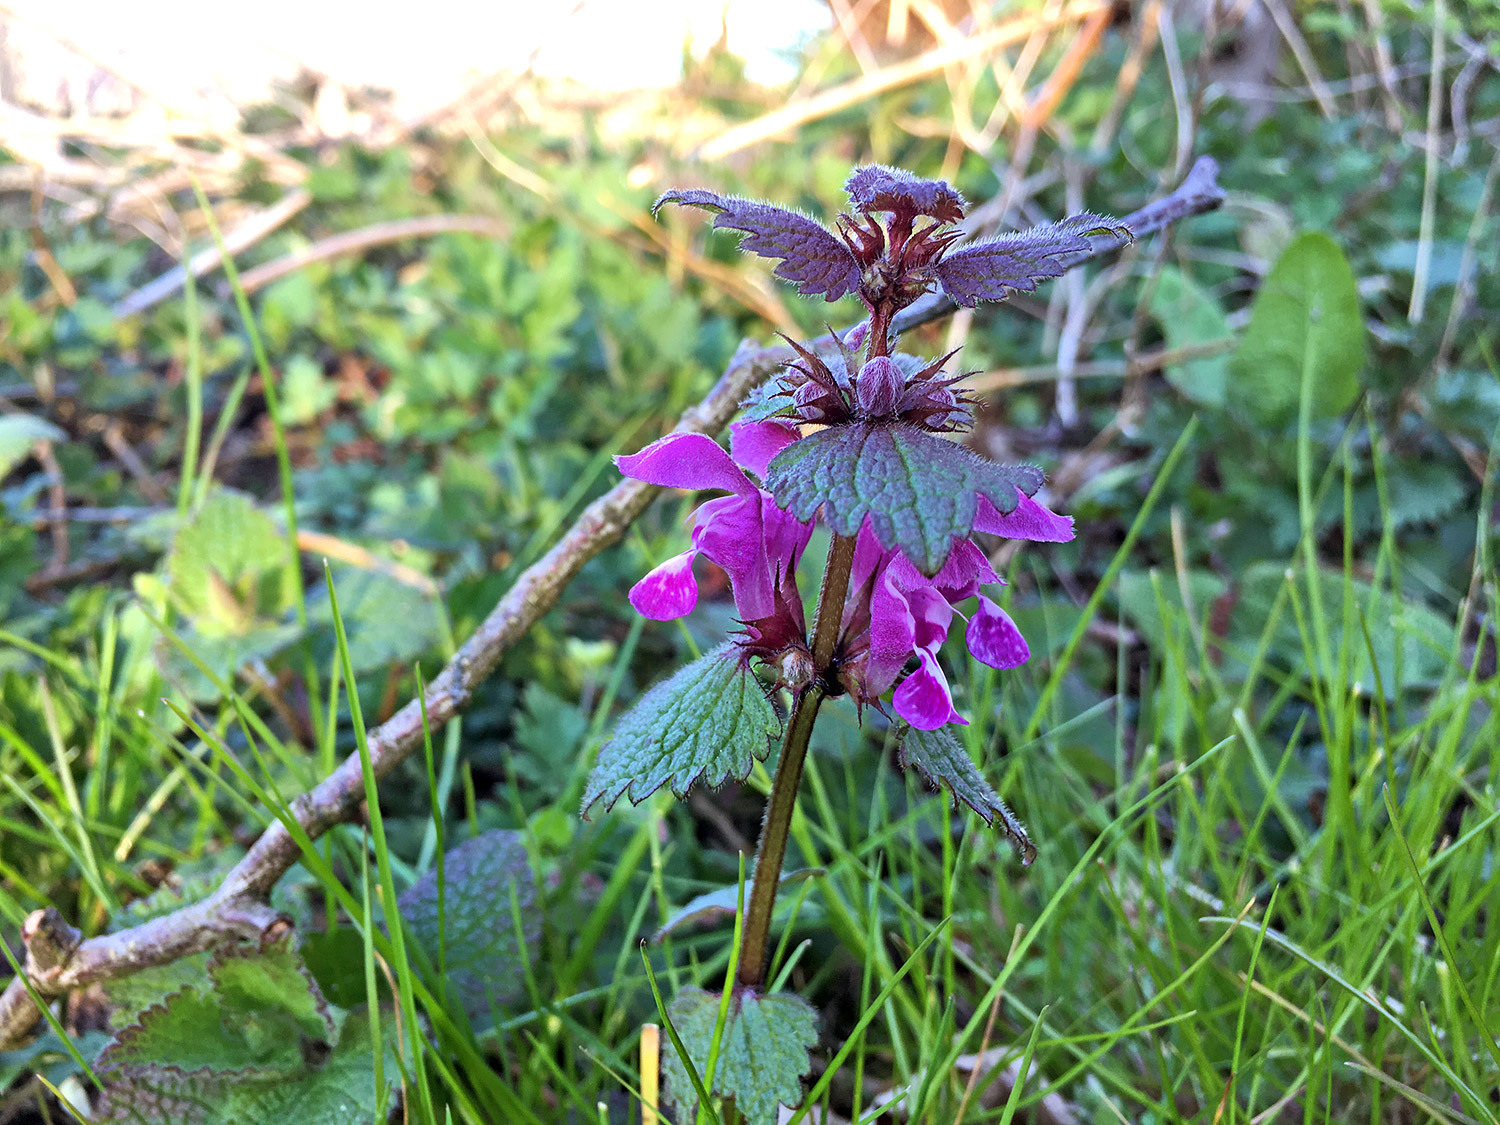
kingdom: Plantae
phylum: Tracheophyta
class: Magnoliopsida
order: Lamiales
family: Lamiaceae
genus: Lamium
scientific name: Lamium maculatum
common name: Spotted dead-nettle
